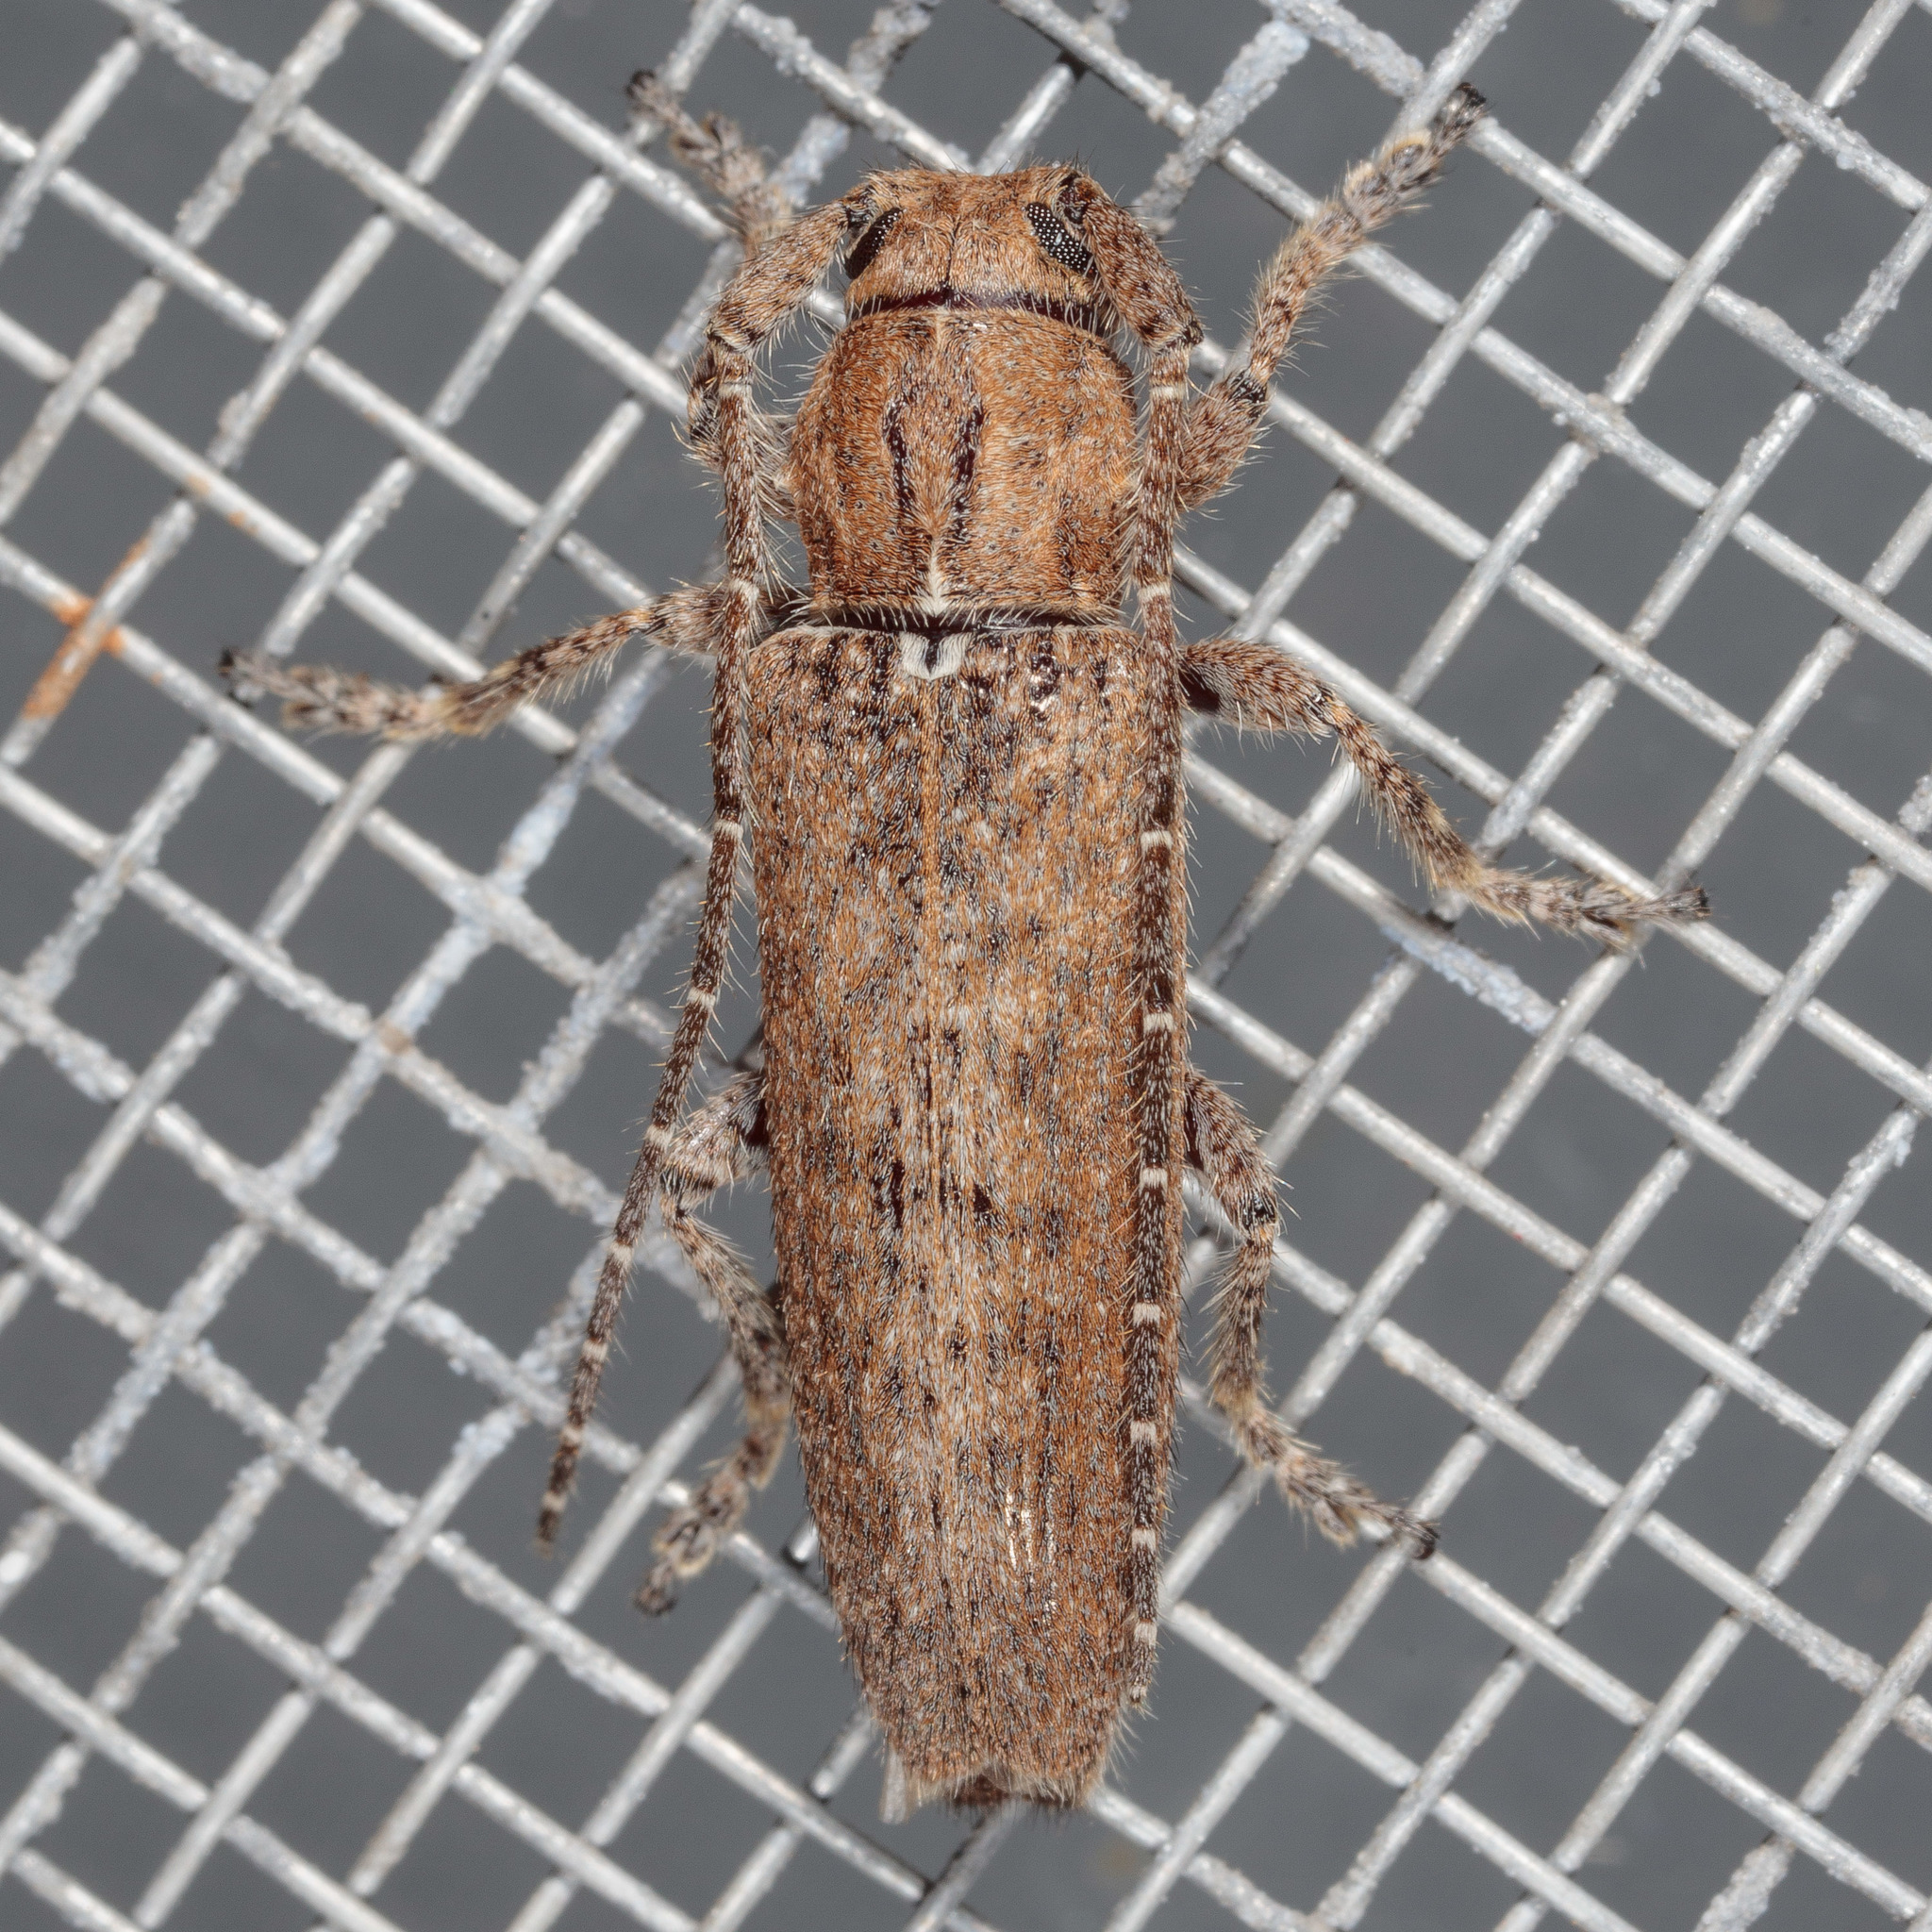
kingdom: Animalia
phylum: Arthropoda
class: Insecta
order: Coleoptera
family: Cerambycidae
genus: Ataxia
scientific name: Ataxia crypta
